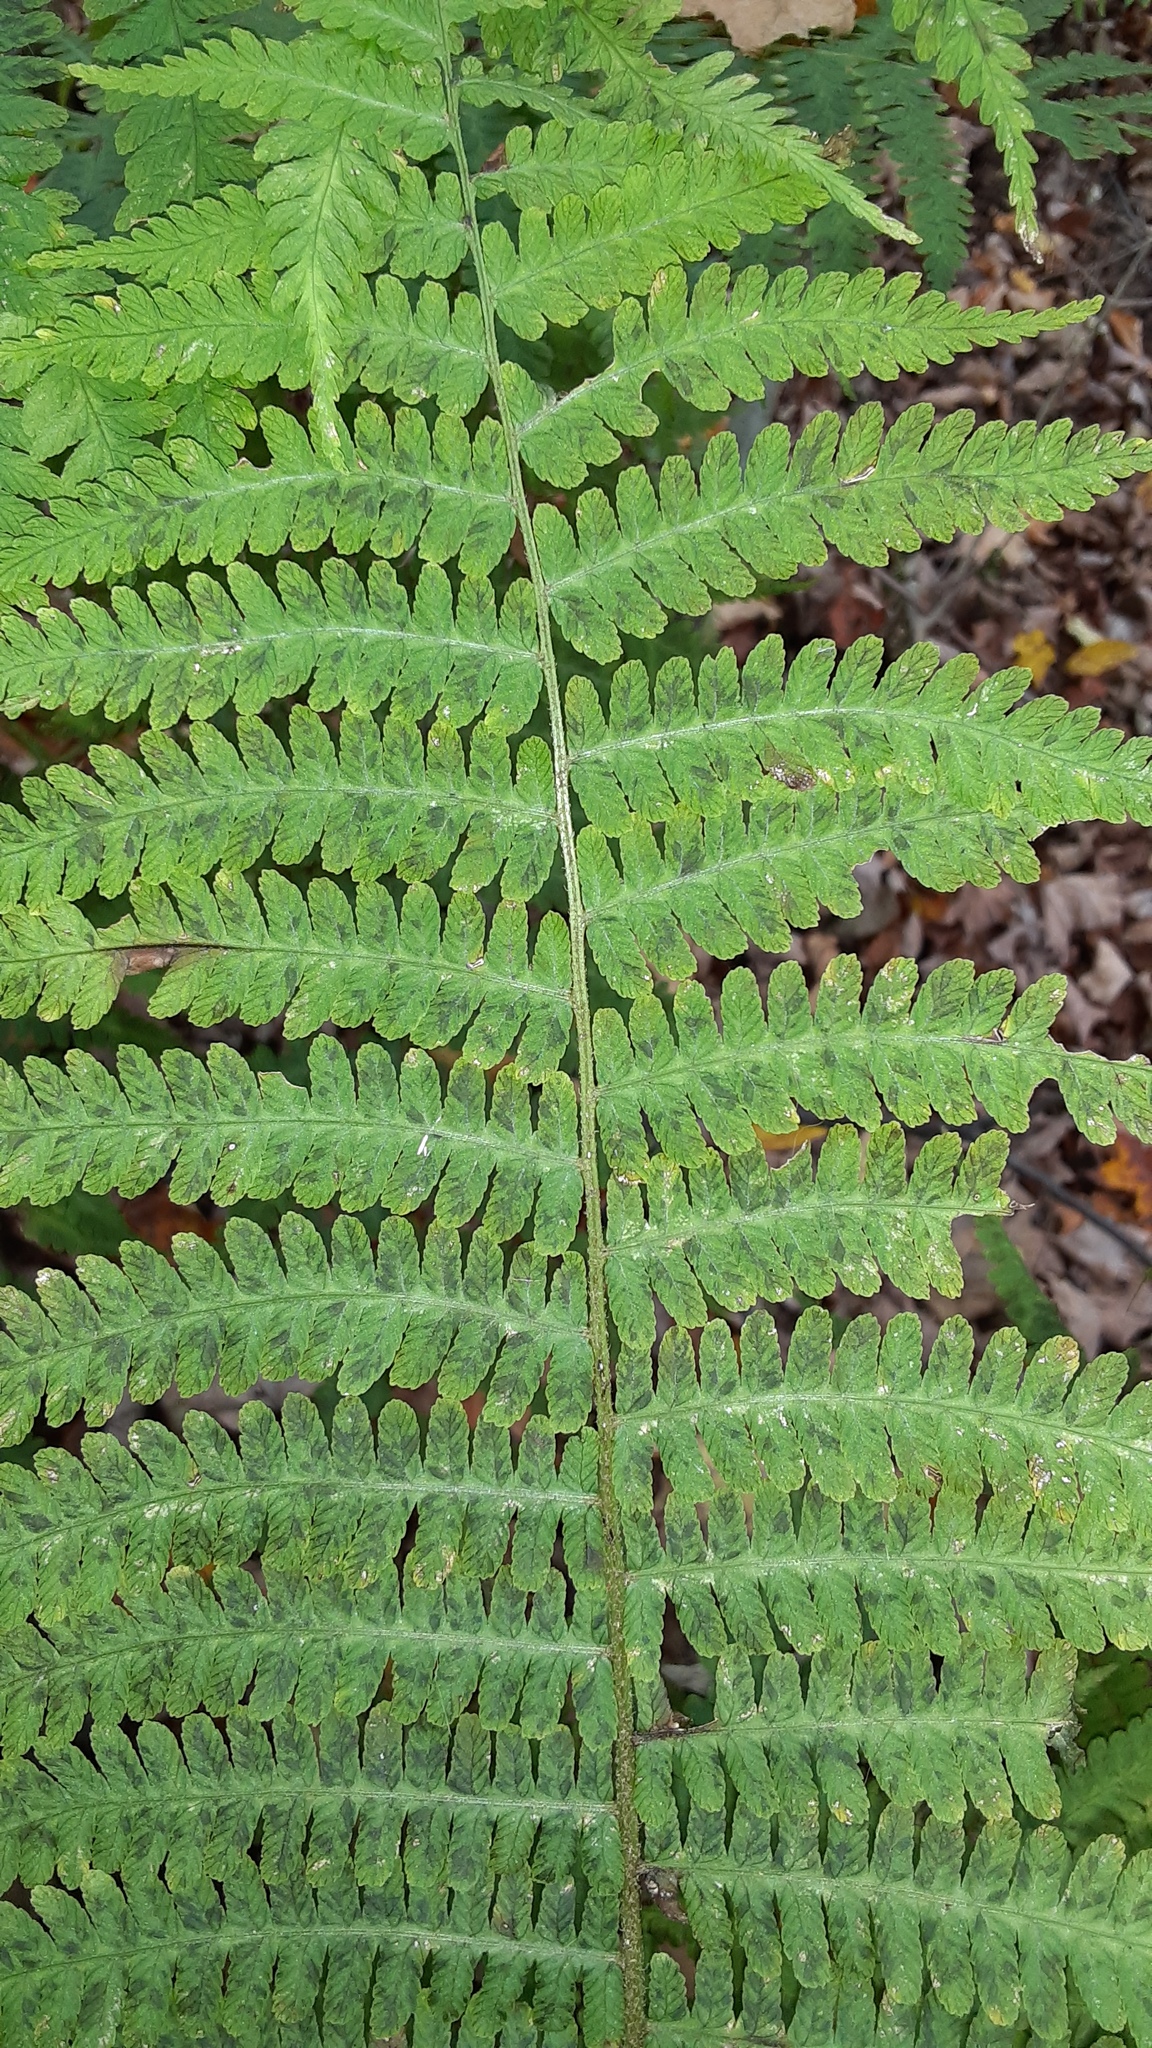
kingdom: Plantae
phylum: Tracheophyta
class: Polypodiopsida
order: Polypodiales
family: Athyriaceae
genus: Deparia
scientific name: Deparia acrostichoides
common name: Silver false spleenwort
